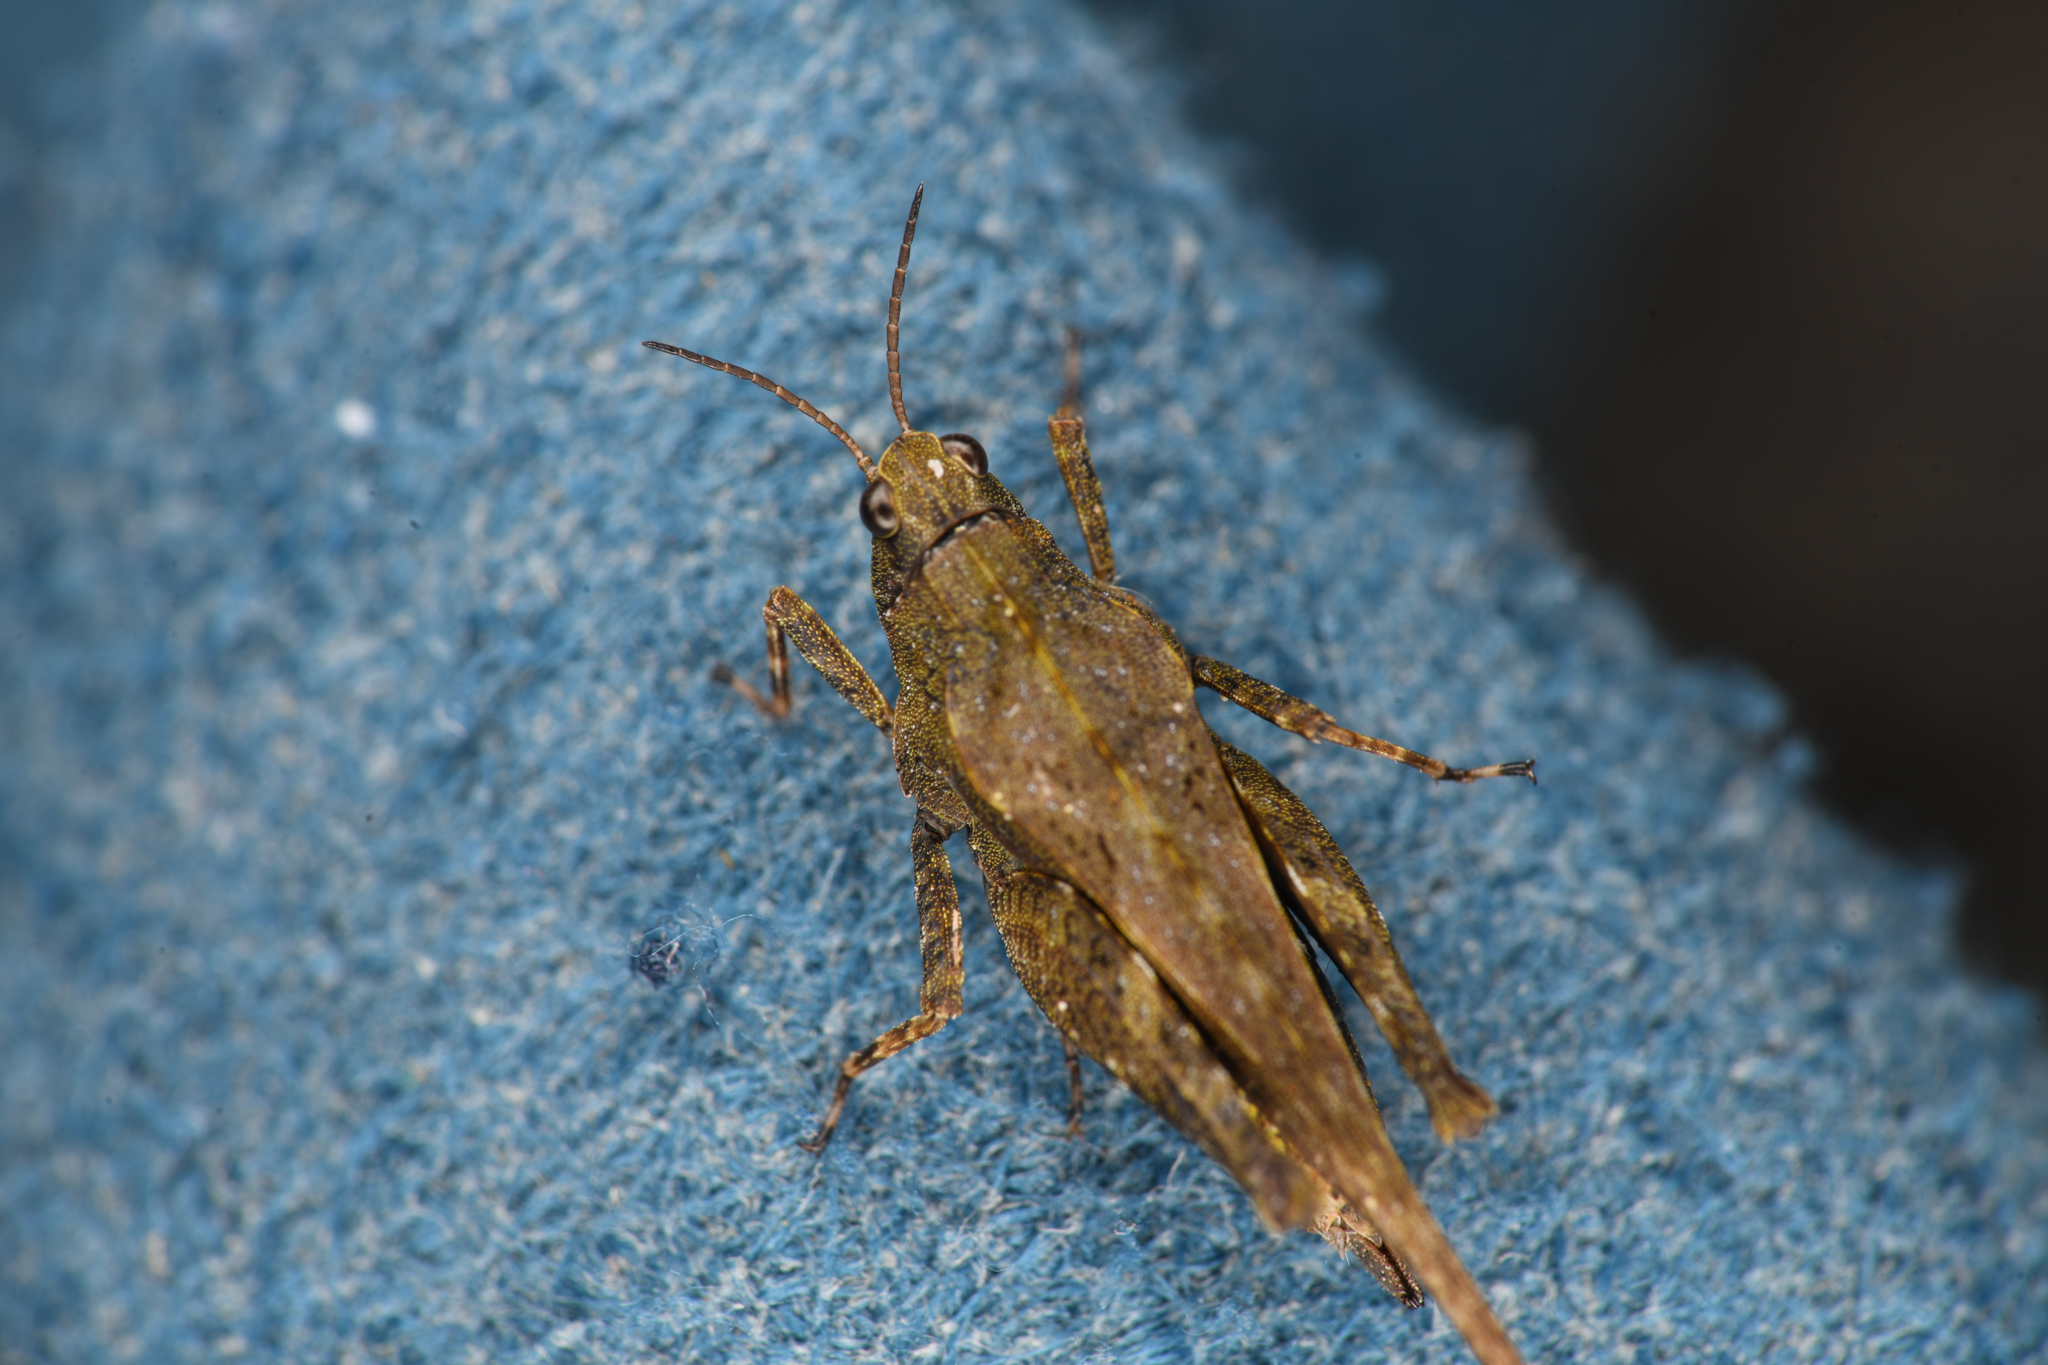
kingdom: Animalia
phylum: Arthropoda
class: Insecta
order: Orthoptera
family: Tetrigidae
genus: Tetrix
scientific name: Tetrix subulata
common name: Slender ground-hopper
